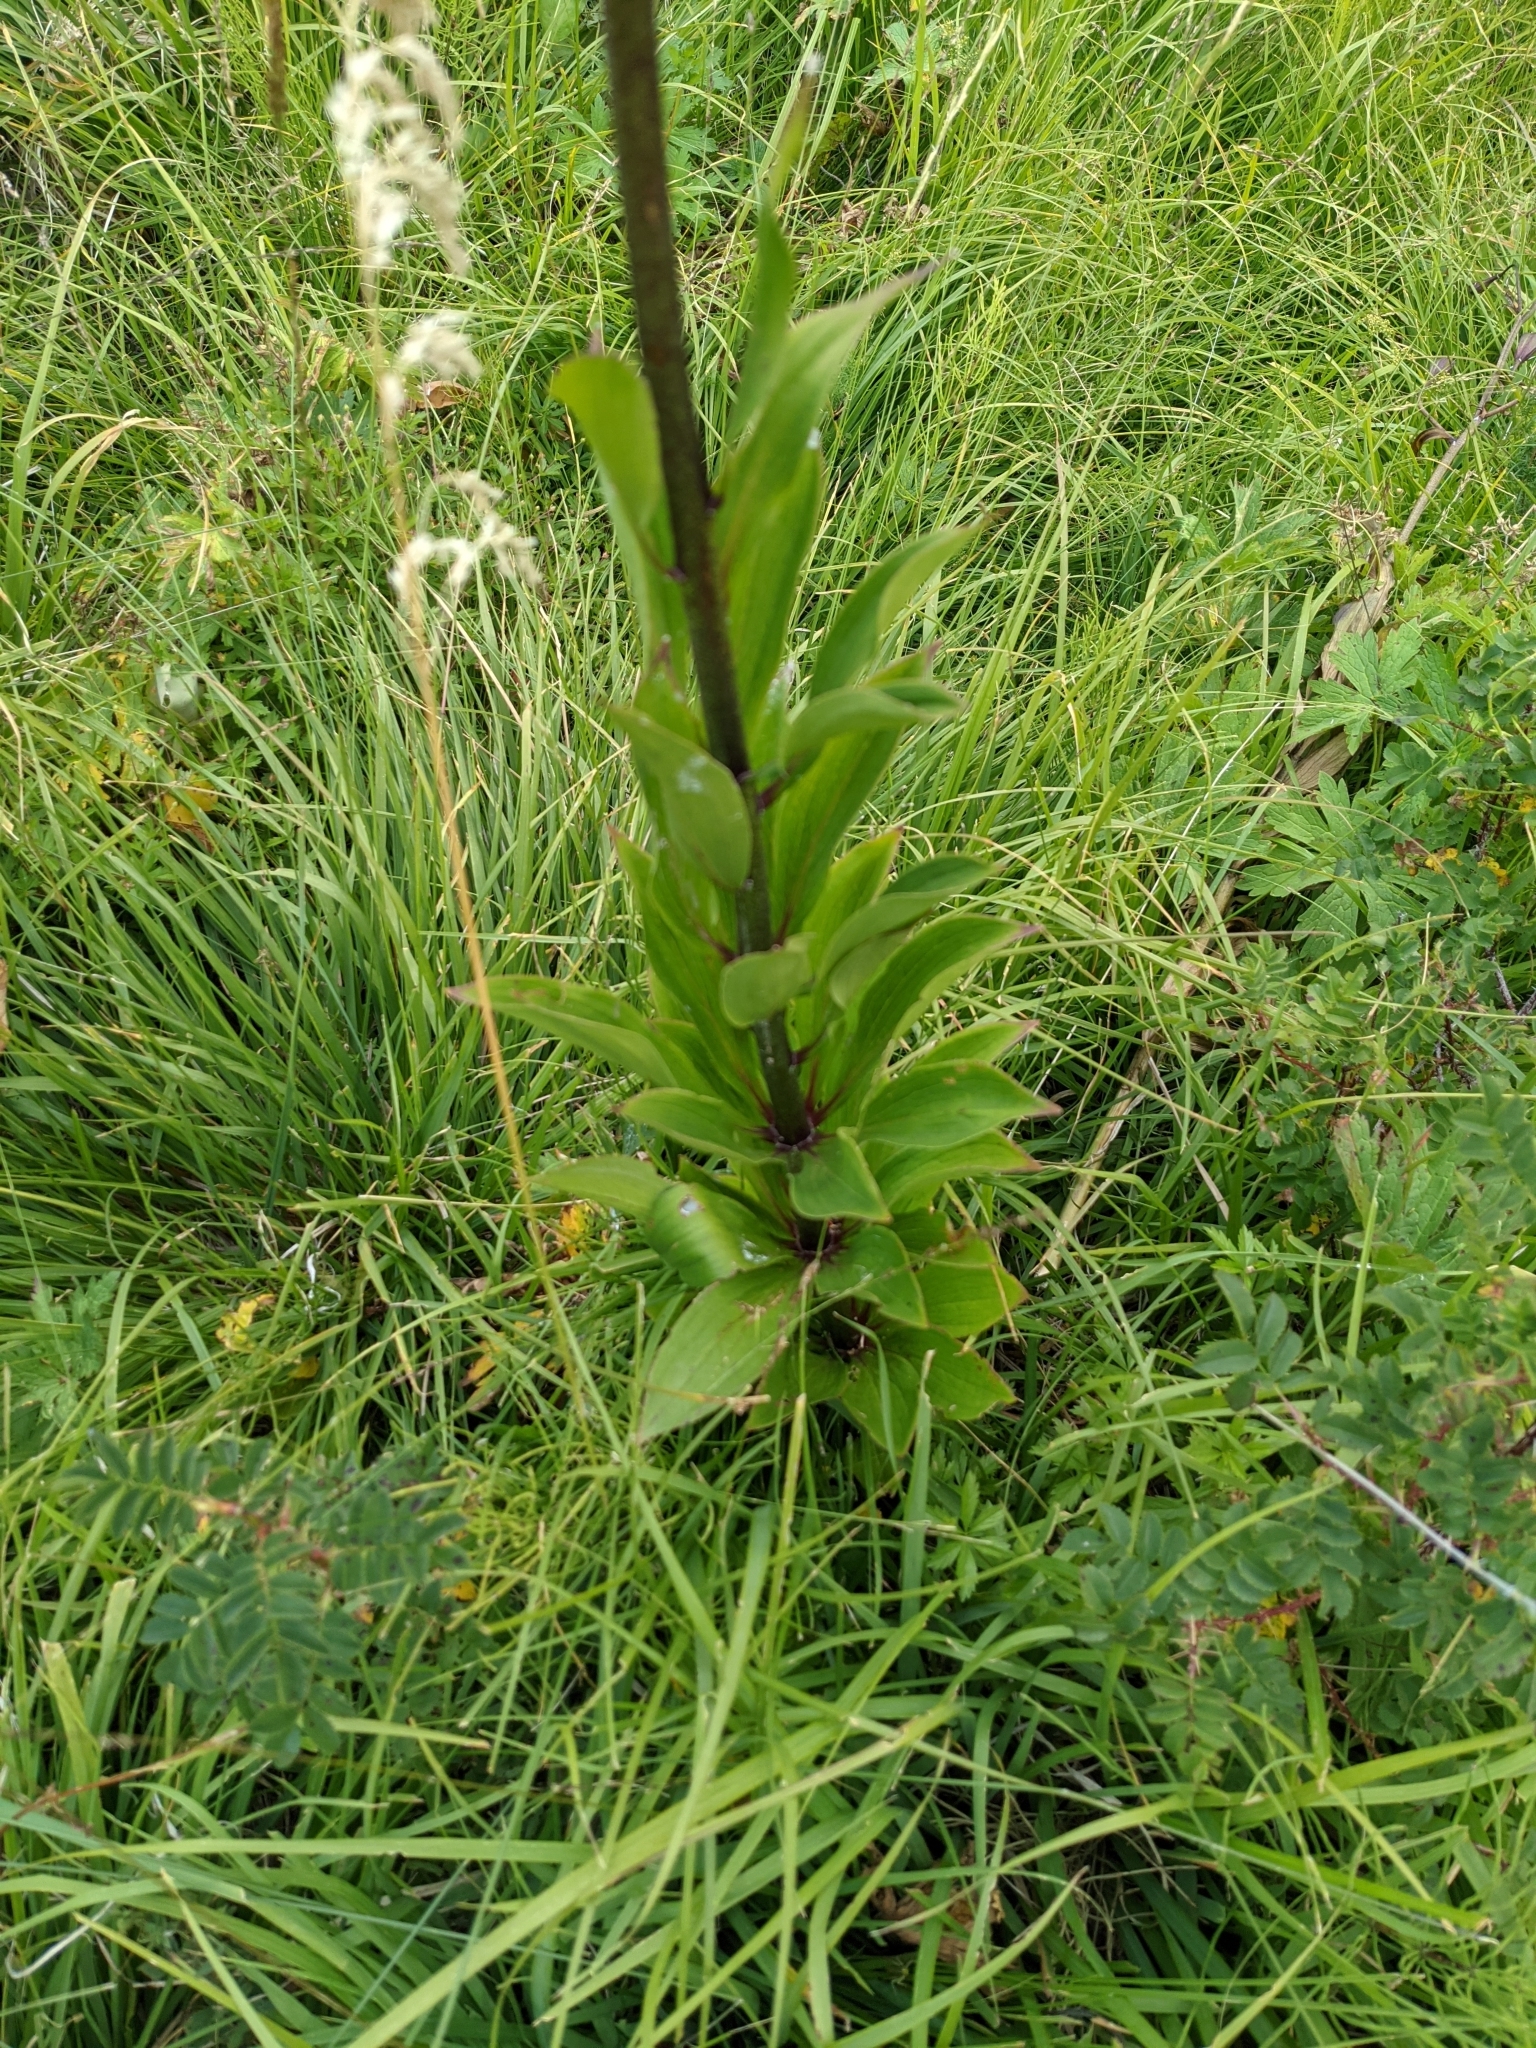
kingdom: Plantae
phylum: Tracheophyta
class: Liliopsida
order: Liliales
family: Liliaceae
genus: Lilium
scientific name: Lilium martagon
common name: Martagon lily
